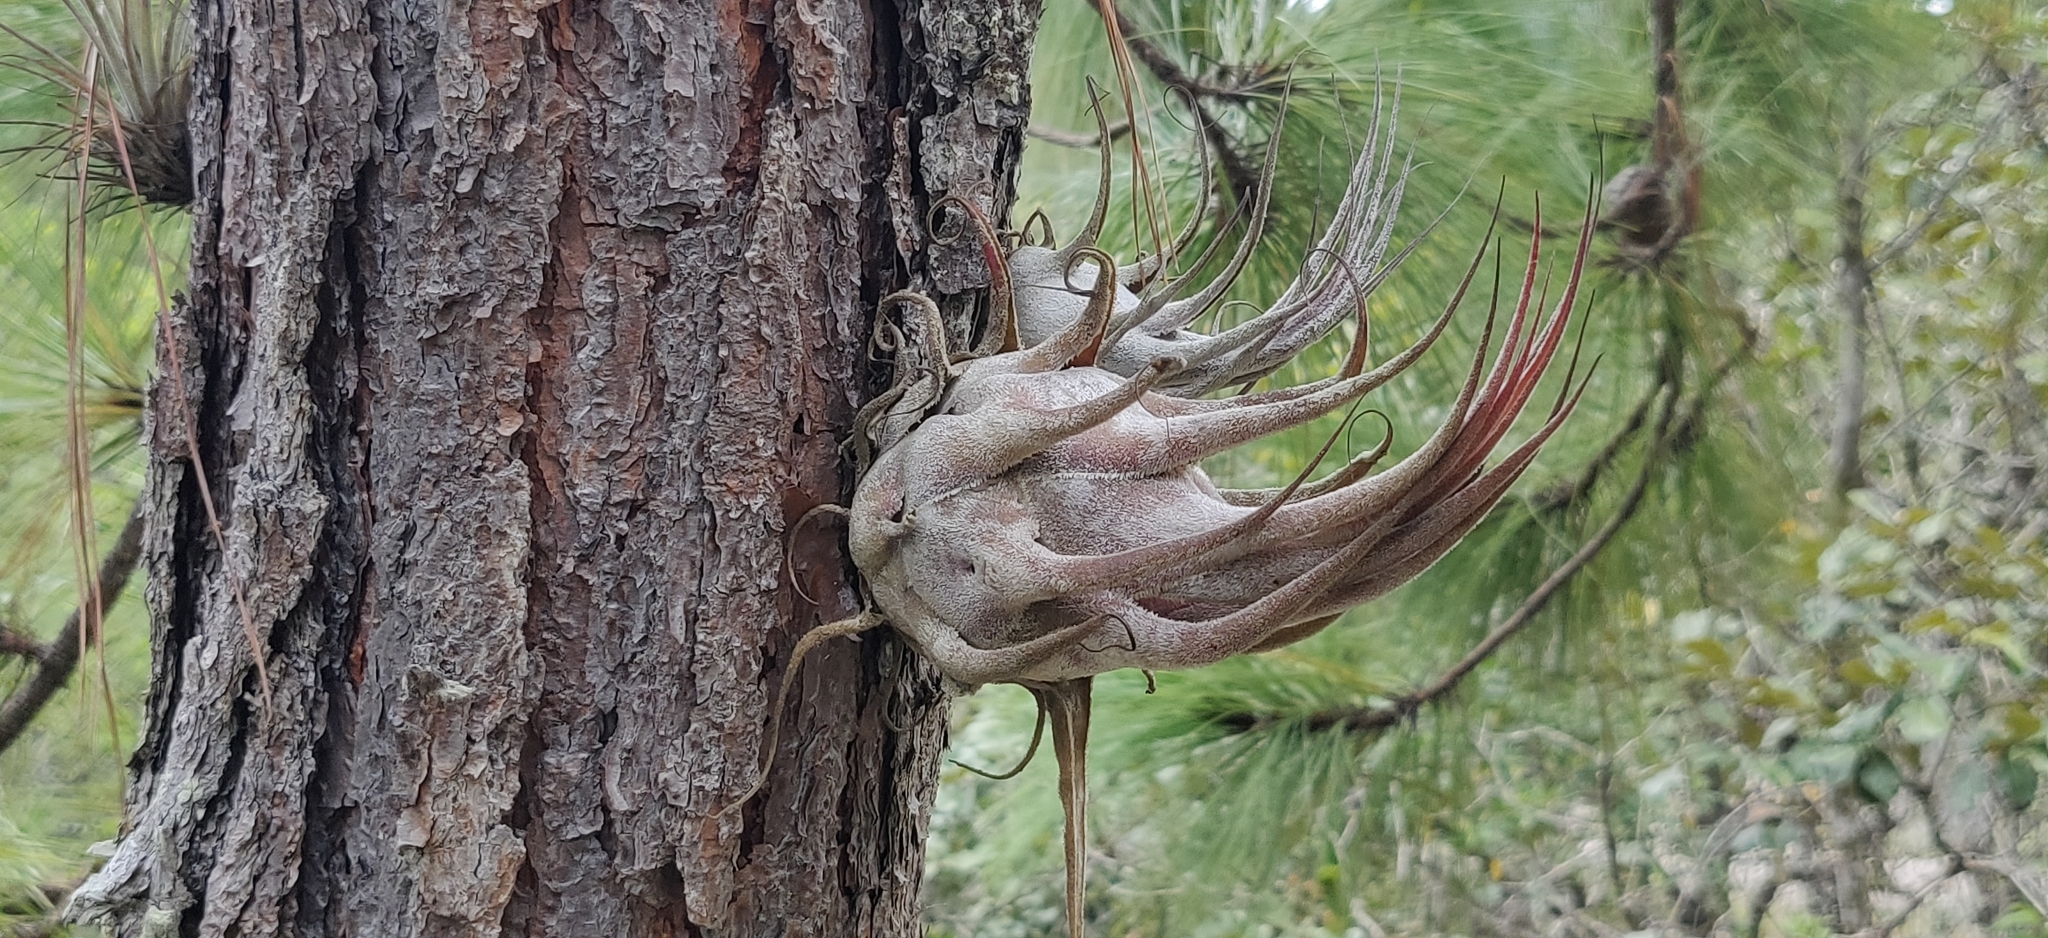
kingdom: Plantae
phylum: Tracheophyta
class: Liliopsida
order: Poales
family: Bromeliaceae
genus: Tillandsia
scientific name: Tillandsia seleriana
